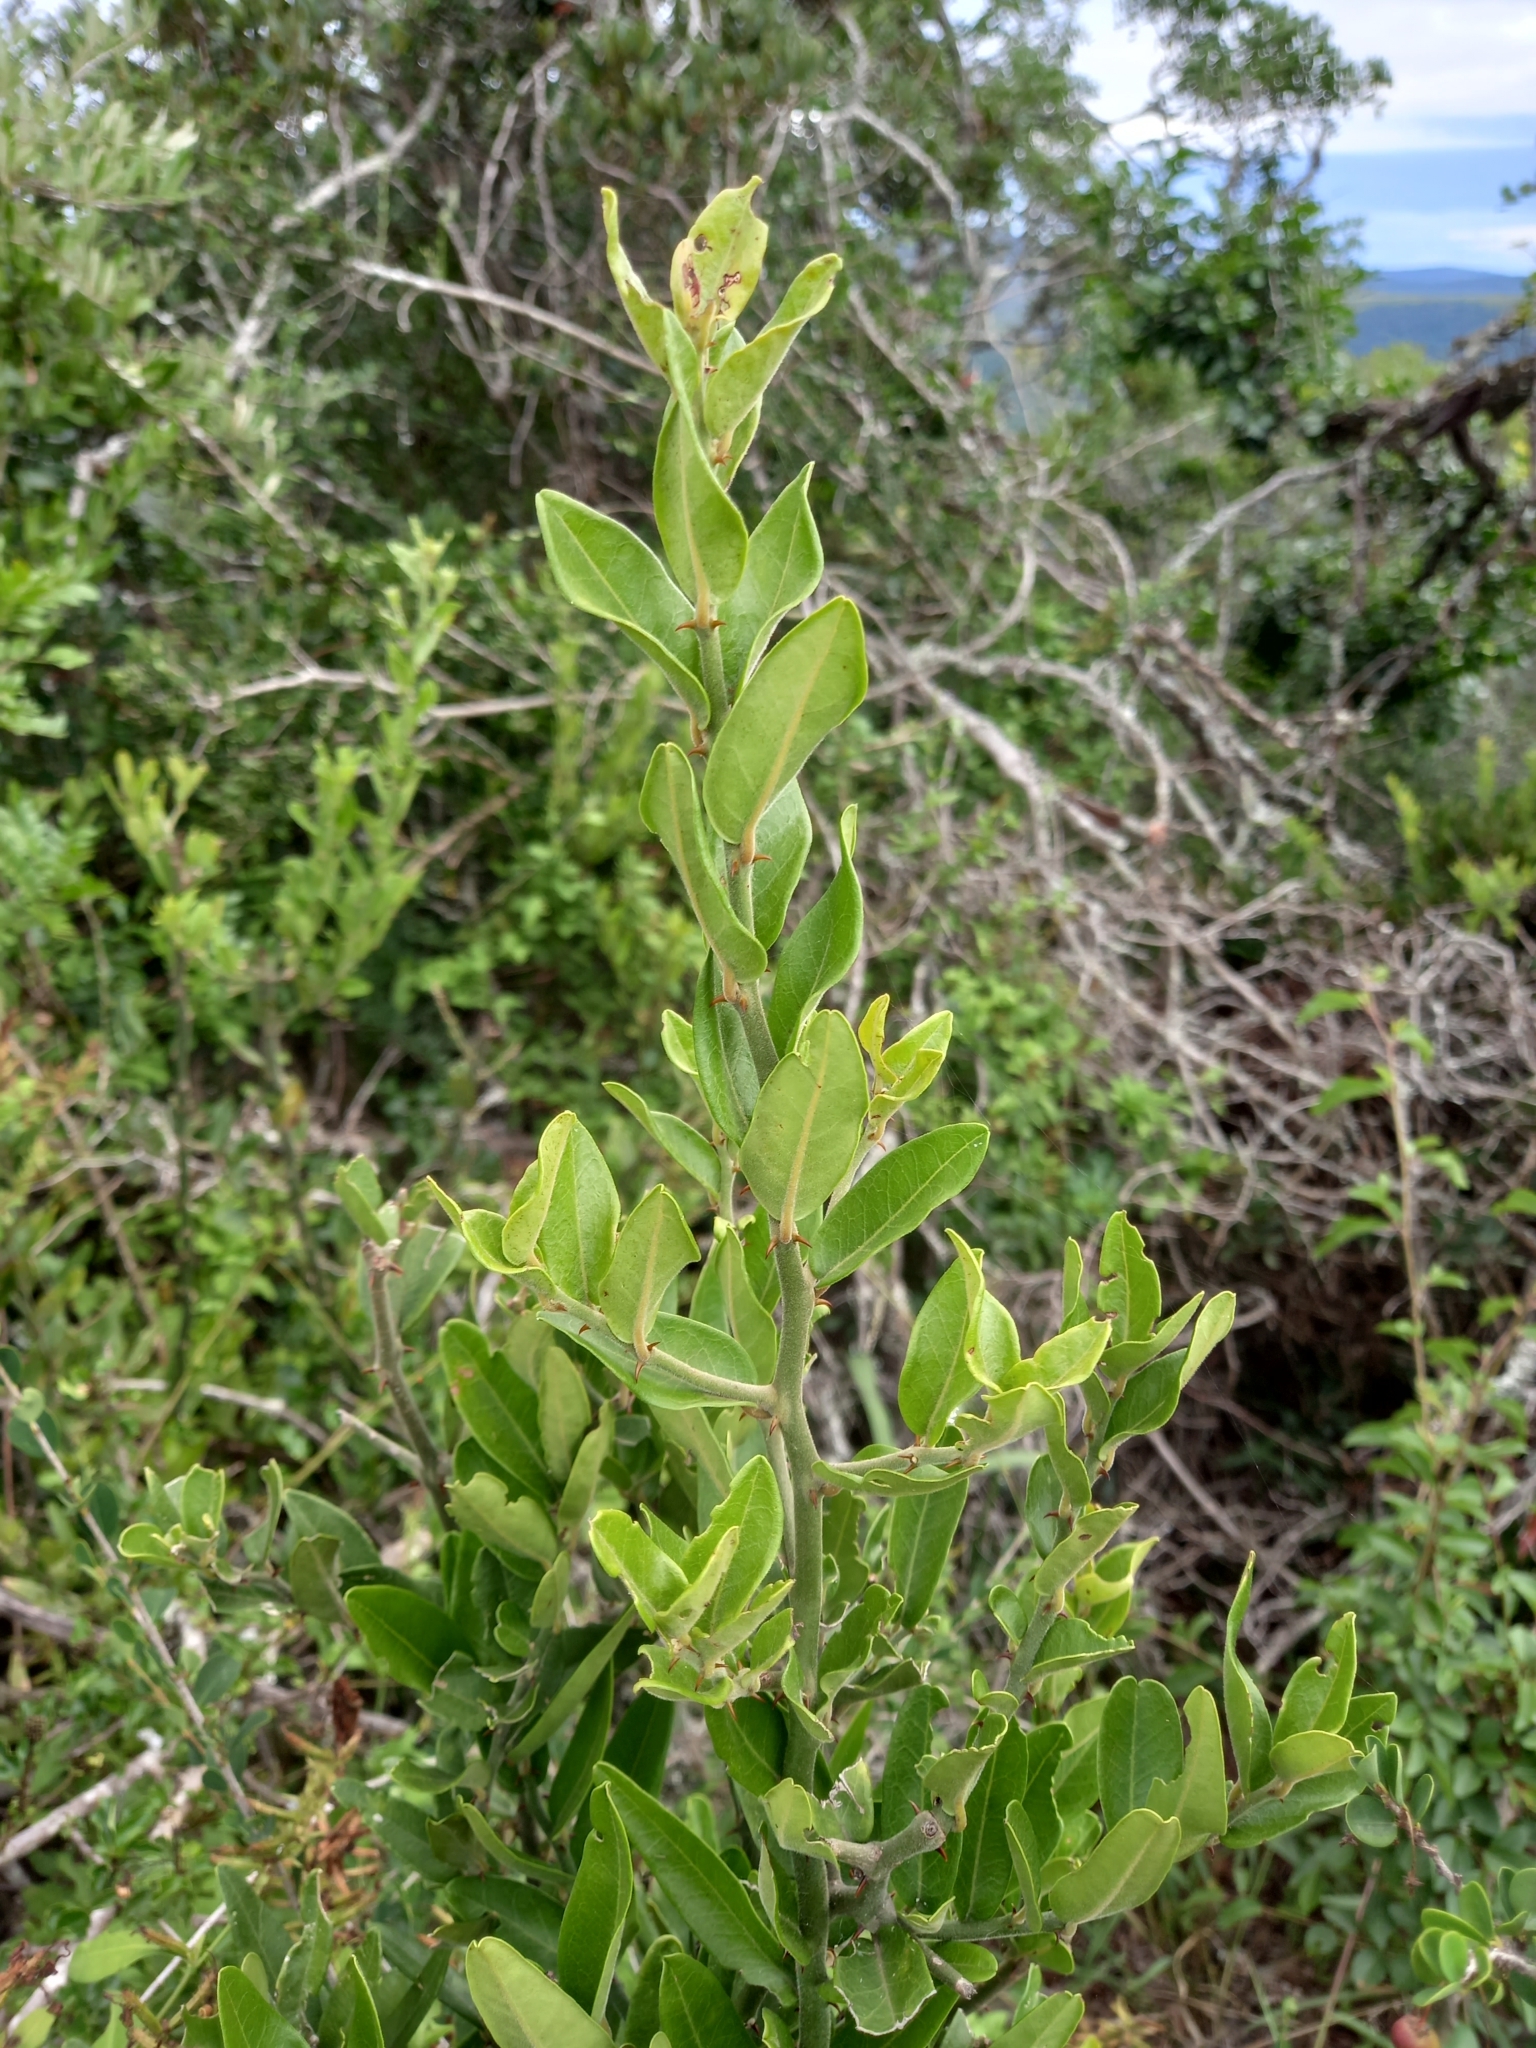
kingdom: Plantae
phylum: Tracheophyta
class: Magnoliopsida
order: Brassicales
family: Capparaceae
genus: Capparis
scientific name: Capparis sepiaria
